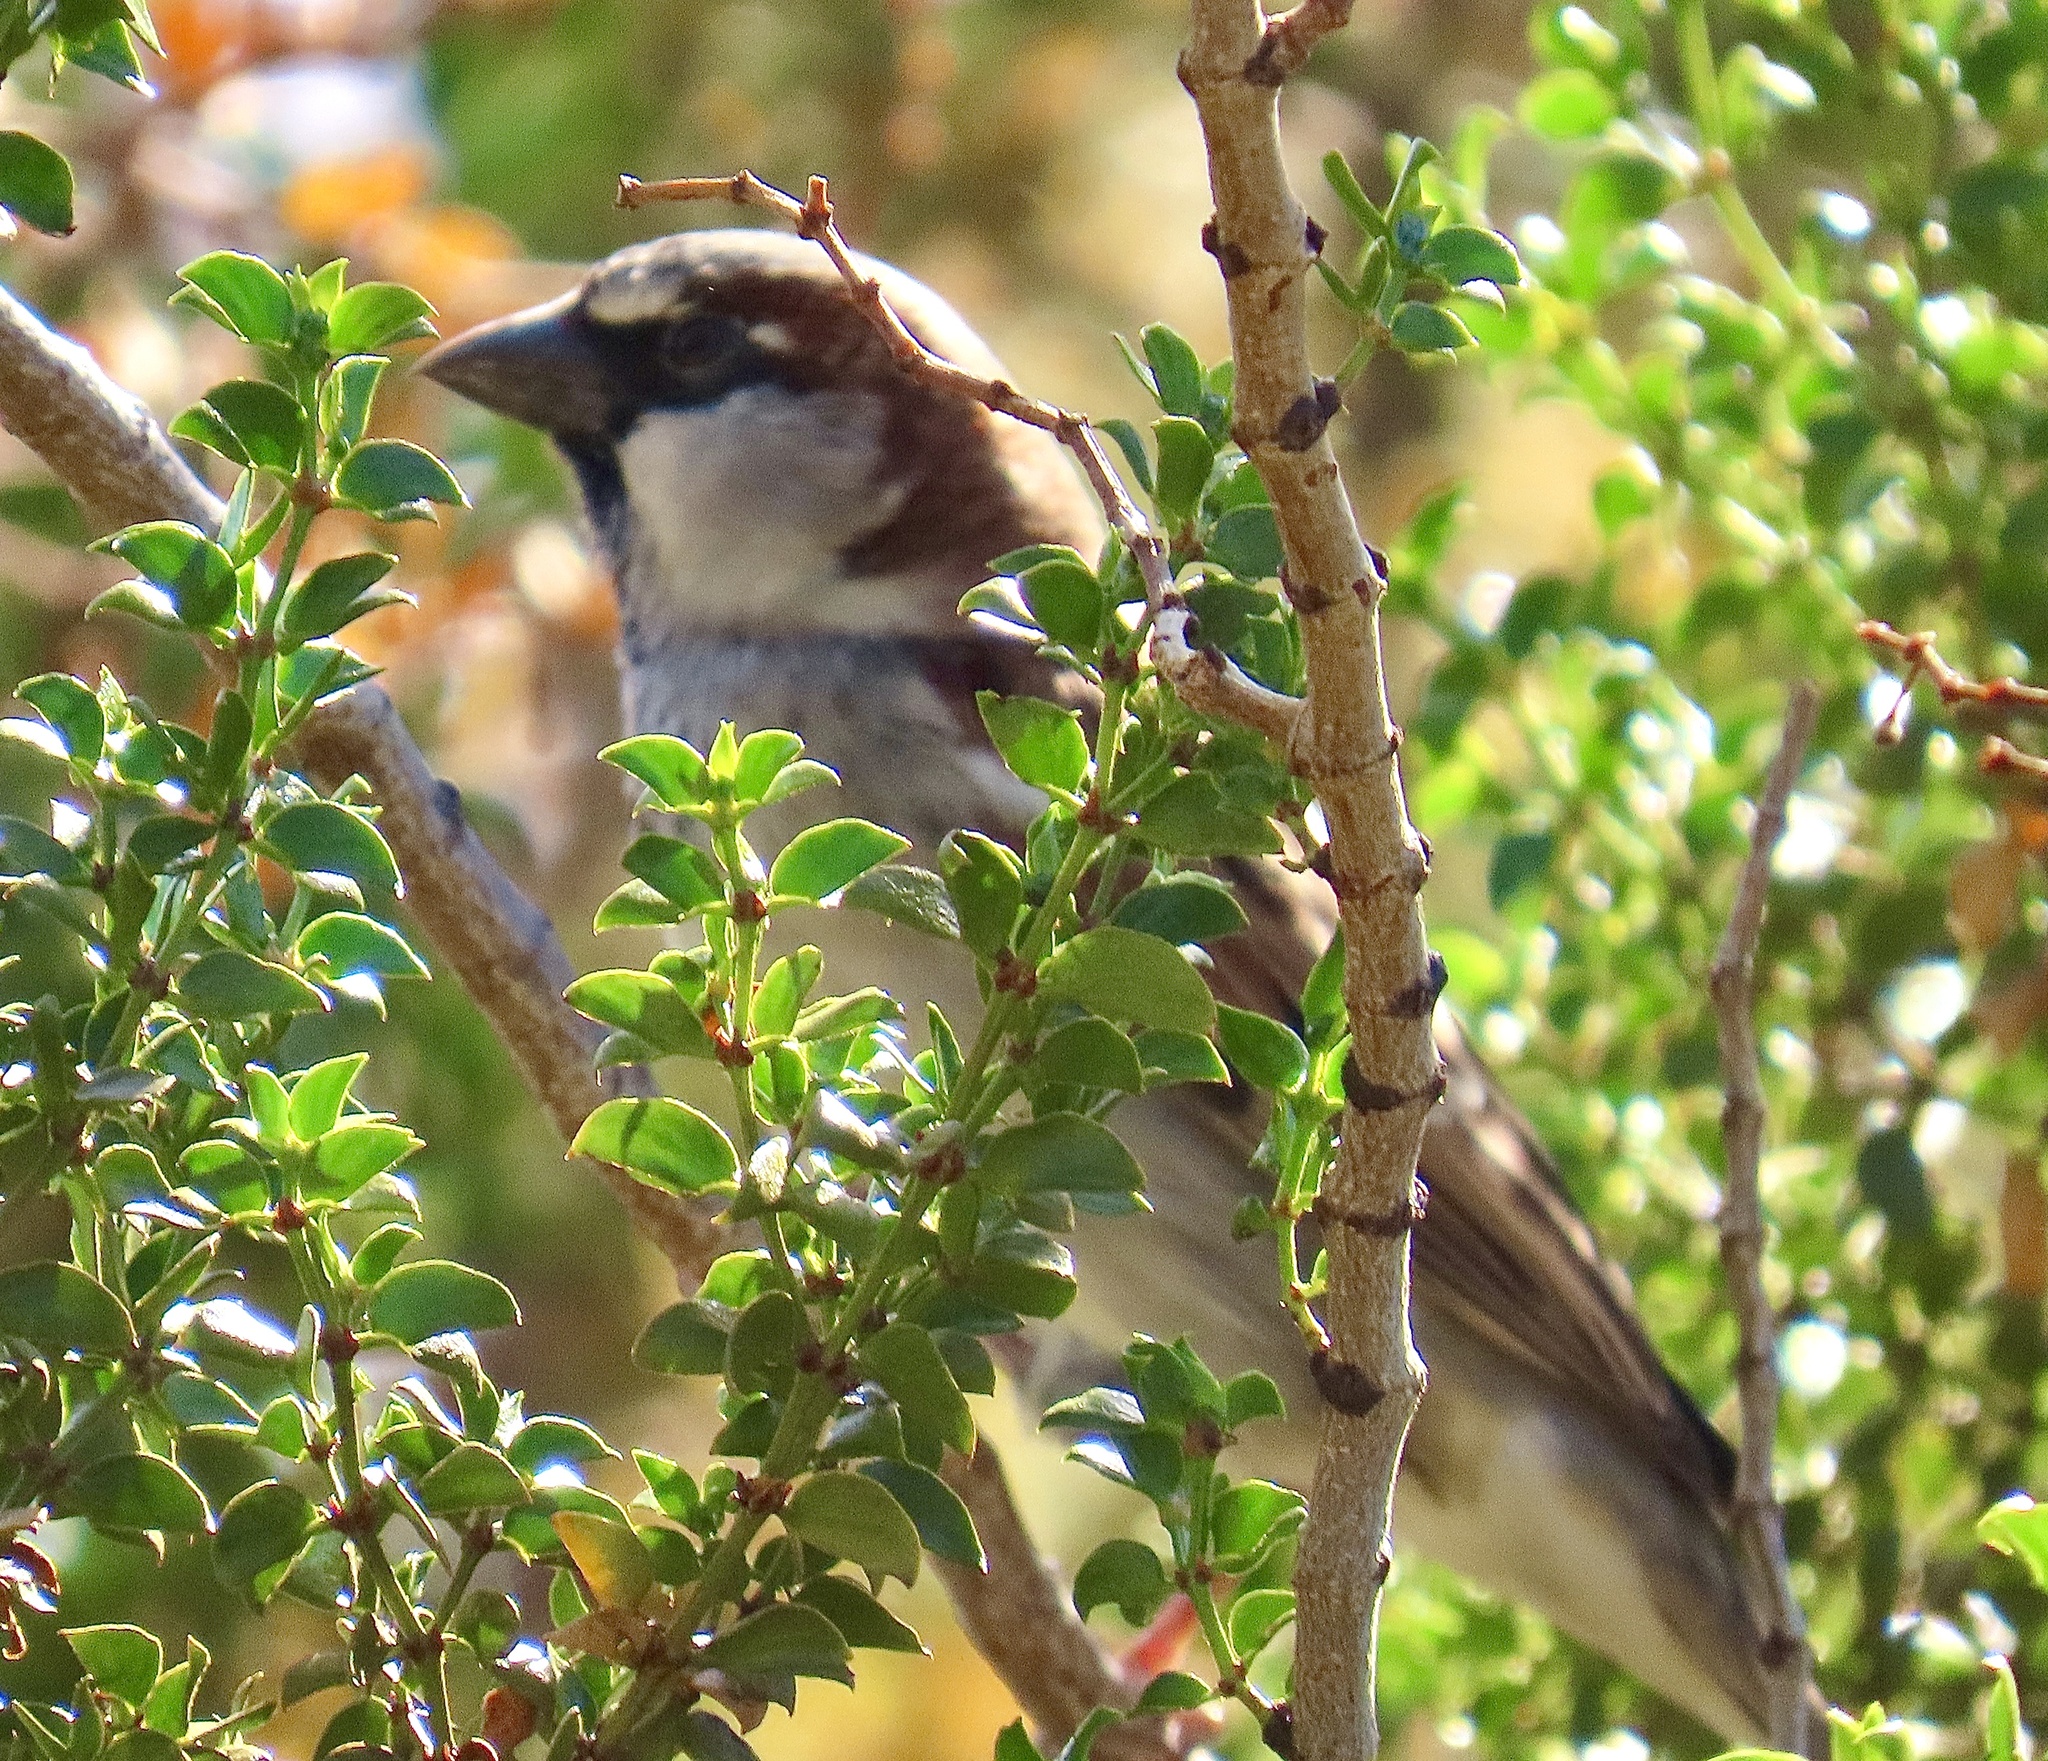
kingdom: Animalia
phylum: Chordata
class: Aves
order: Passeriformes
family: Passeridae
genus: Passer
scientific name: Passer domesticus
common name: House sparrow
